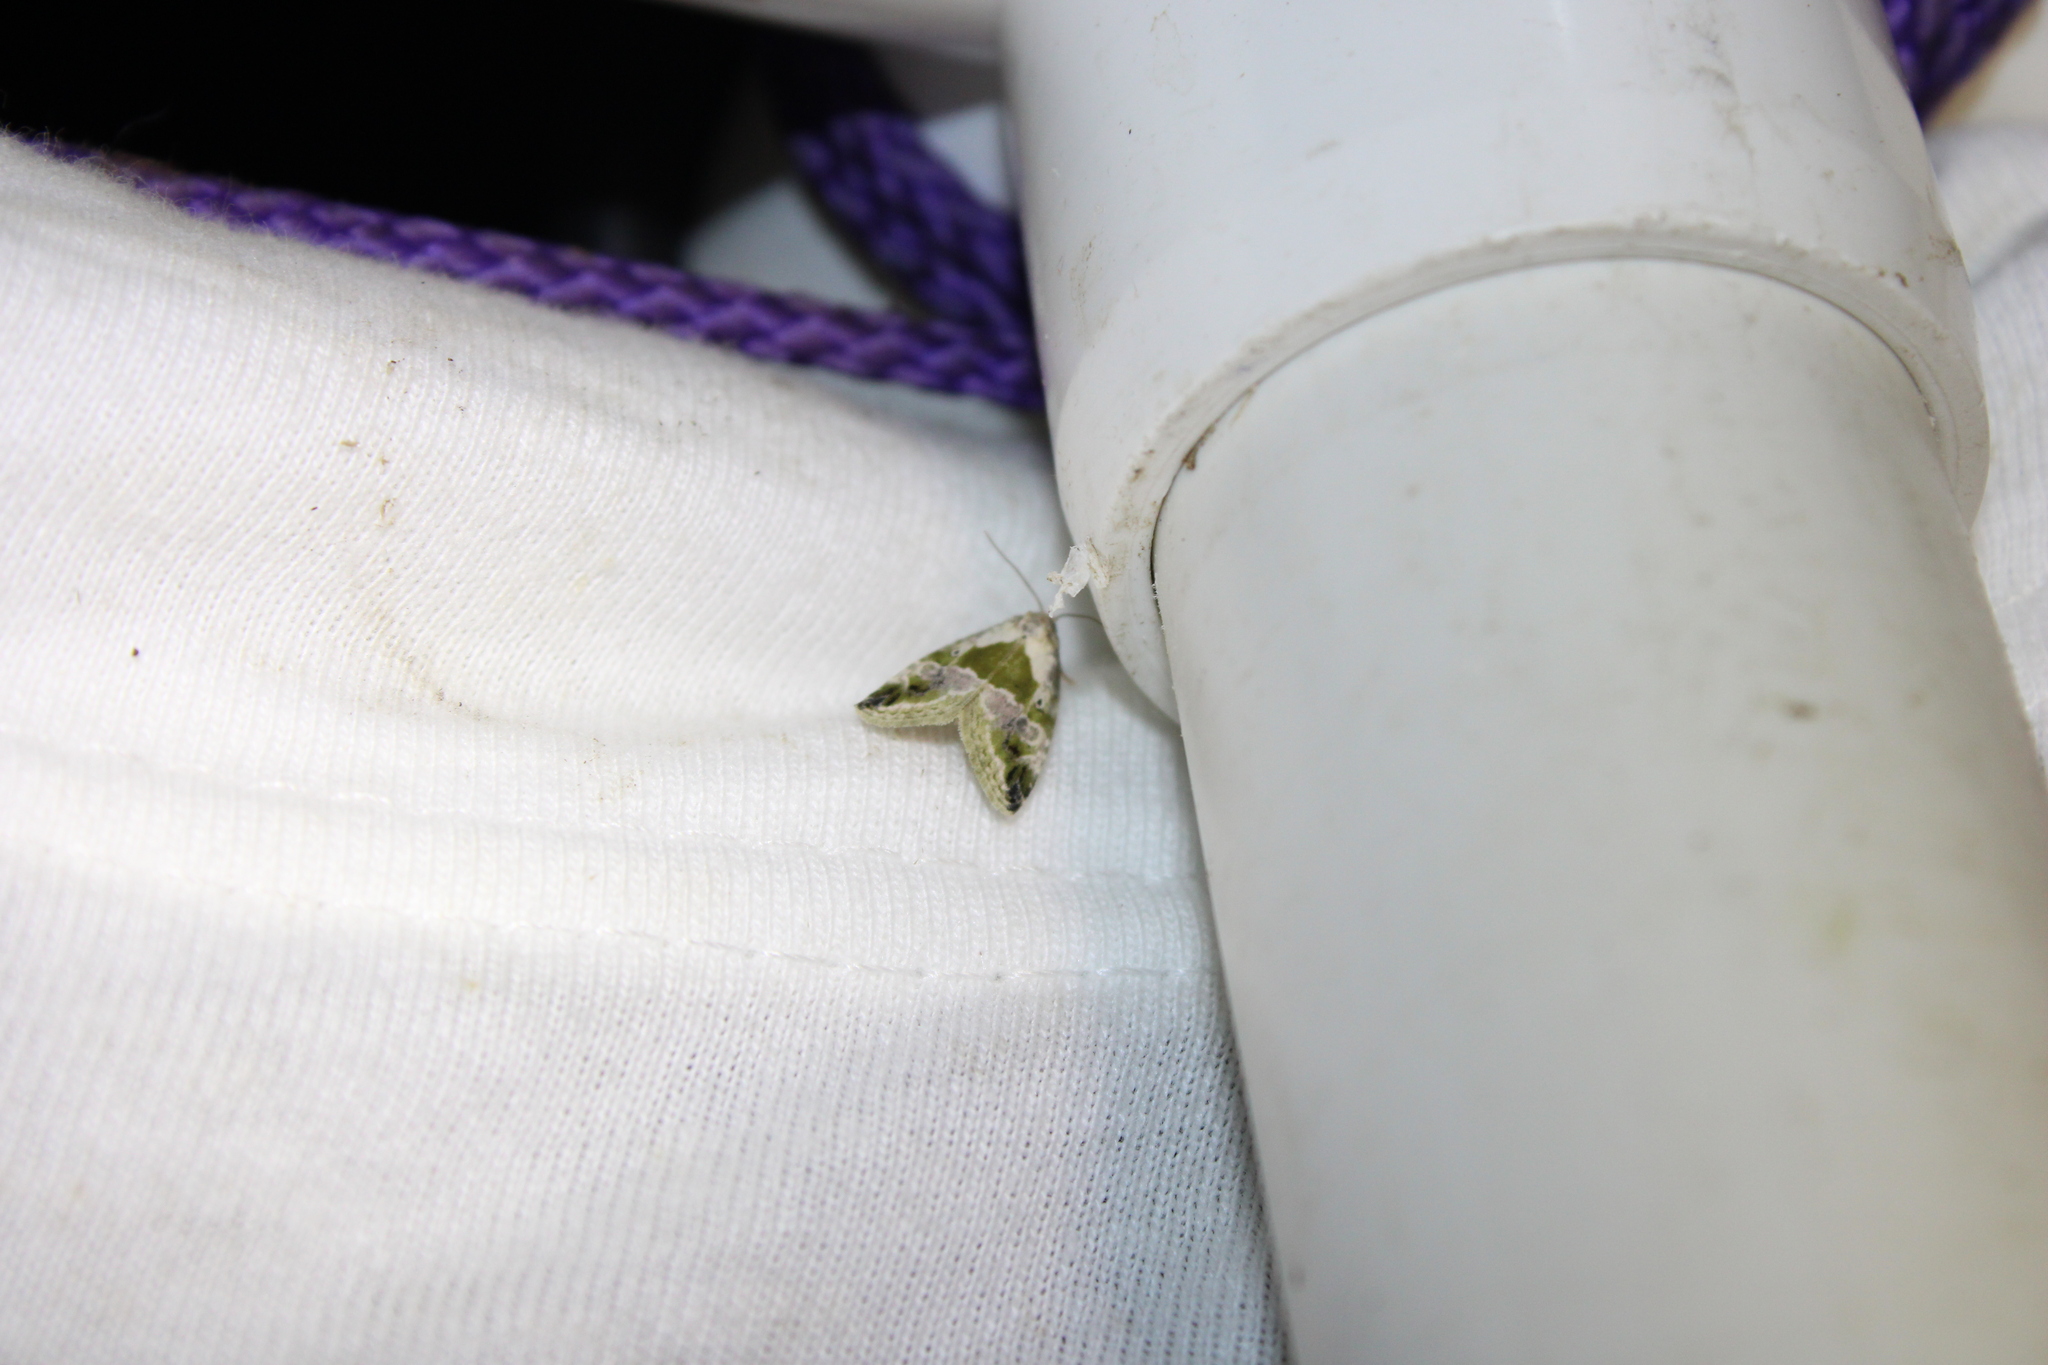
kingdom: Animalia
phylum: Arthropoda
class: Insecta
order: Lepidoptera
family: Noctuidae
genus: Maliattha
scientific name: Maliattha synochitis
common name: Black-dotted glyph
